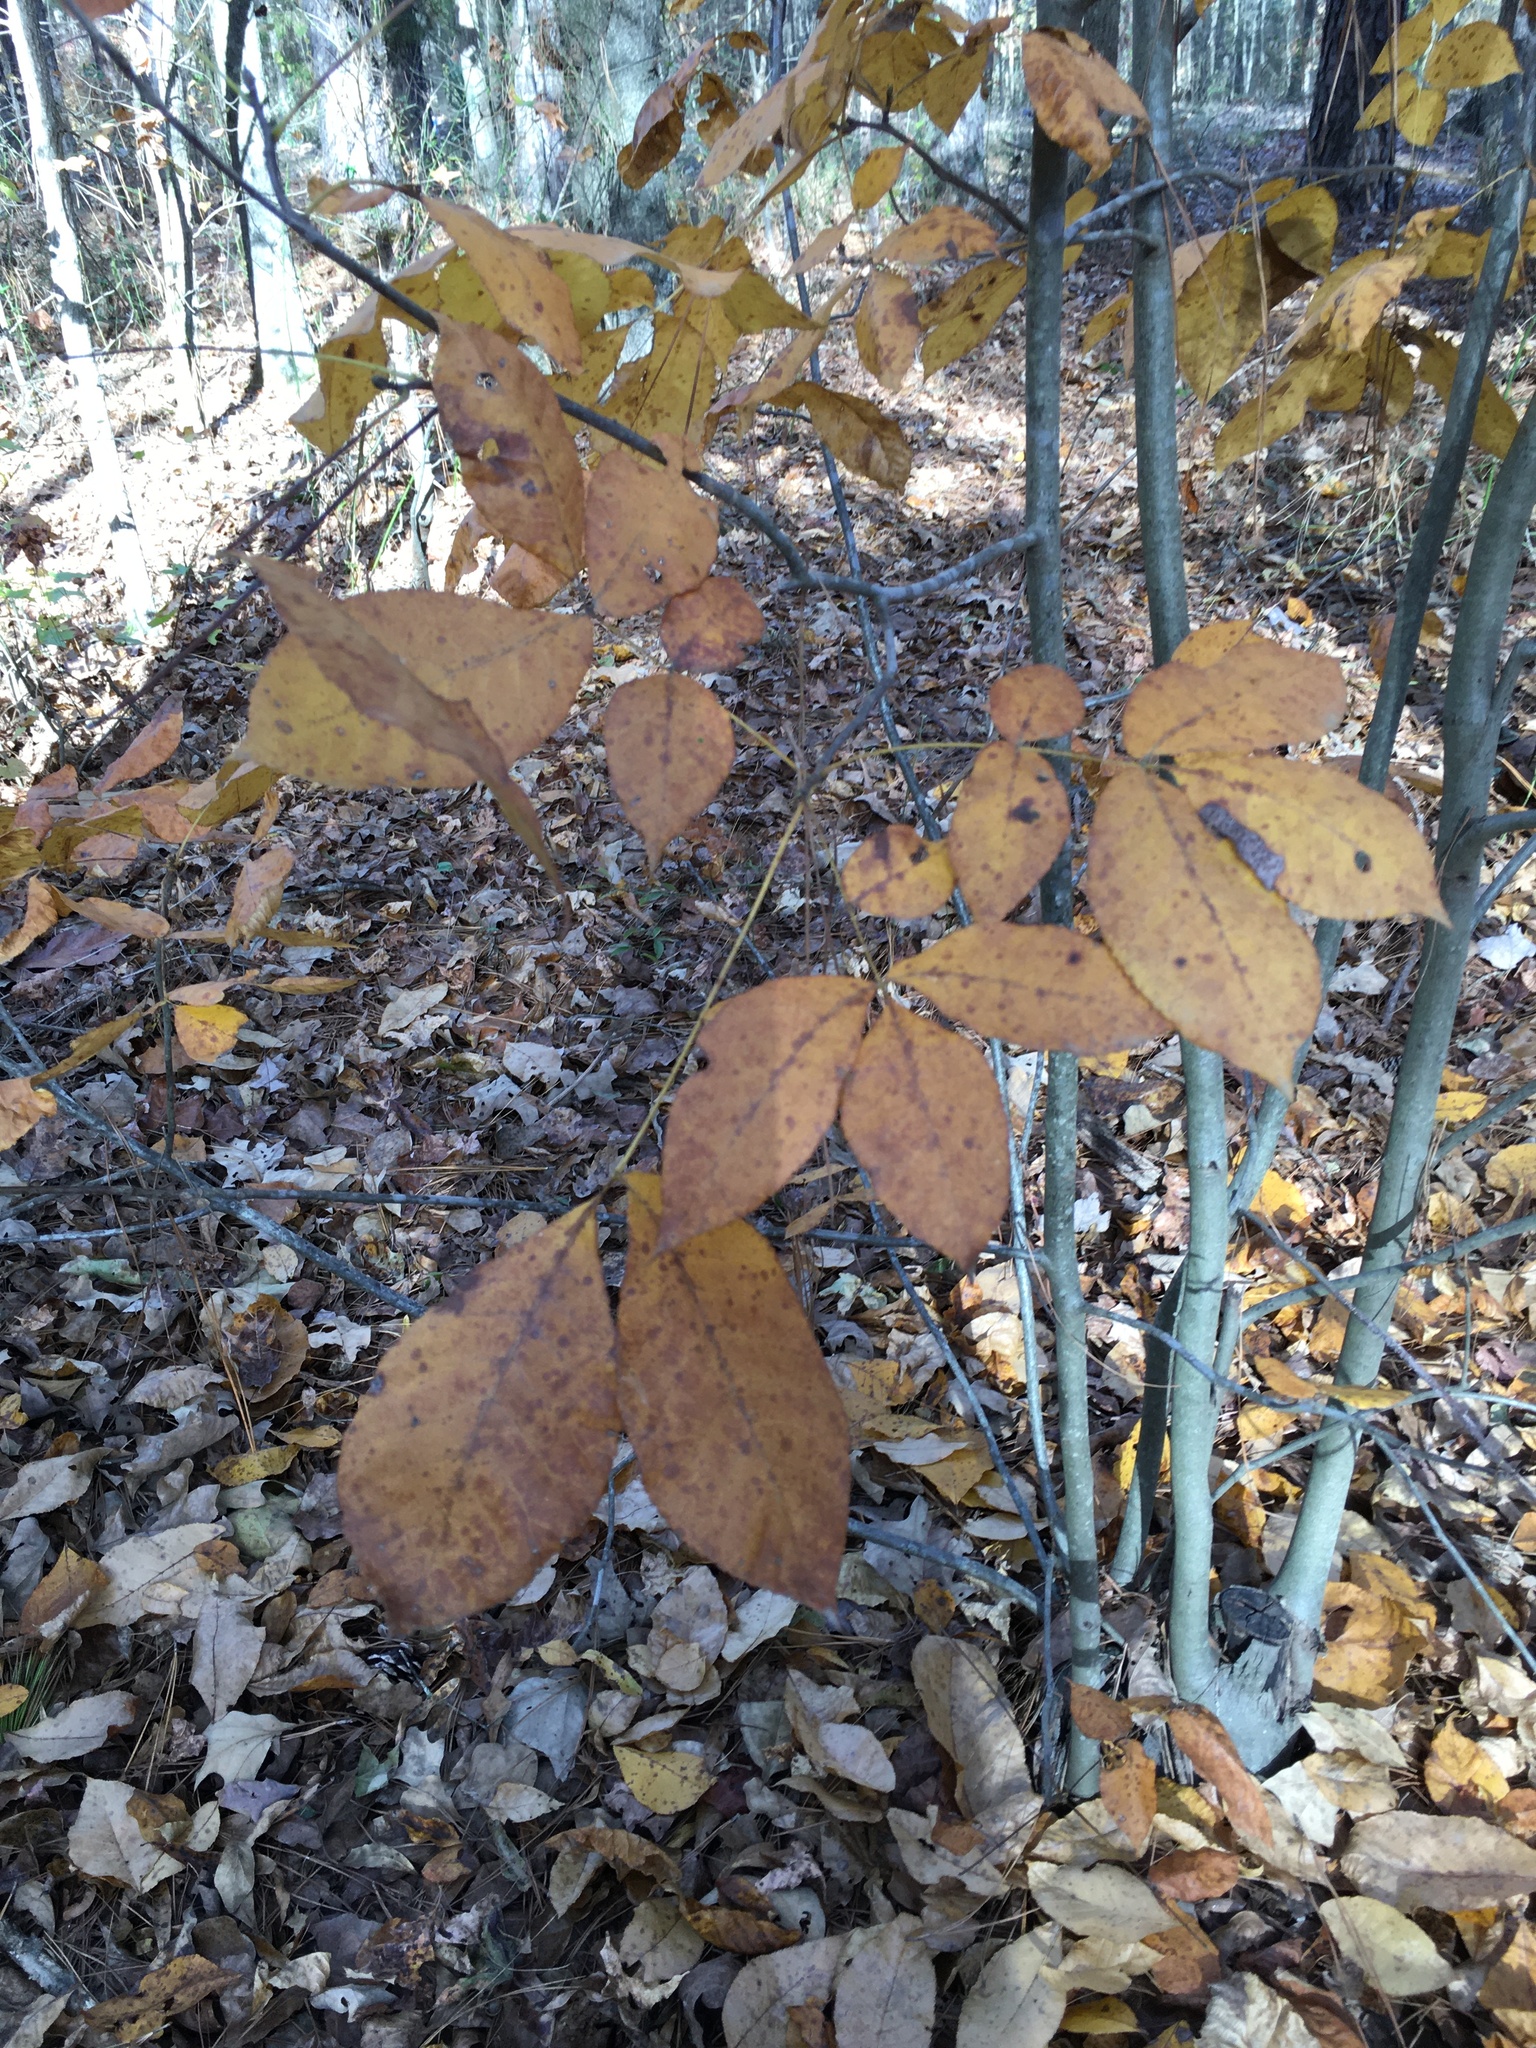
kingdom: Plantae
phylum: Tracheophyta
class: Magnoliopsida
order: Fagales
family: Juglandaceae
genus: Carya
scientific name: Carya glabra
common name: Pignut hickory
